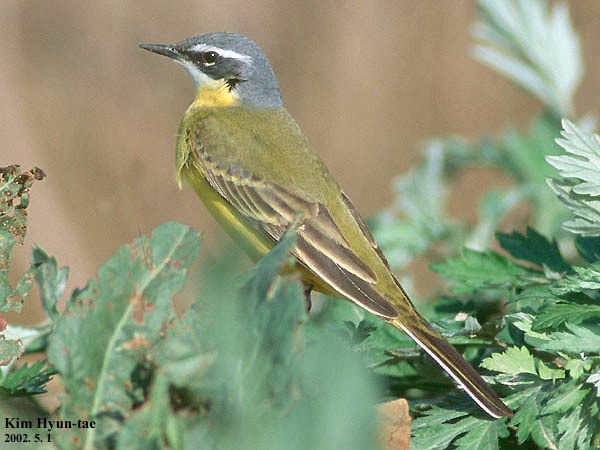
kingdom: Animalia
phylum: Chordata
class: Aves
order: Passeriformes
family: Motacillidae
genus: Motacilla
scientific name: Motacilla tschutschensis
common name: Eastern yellow wagtail
